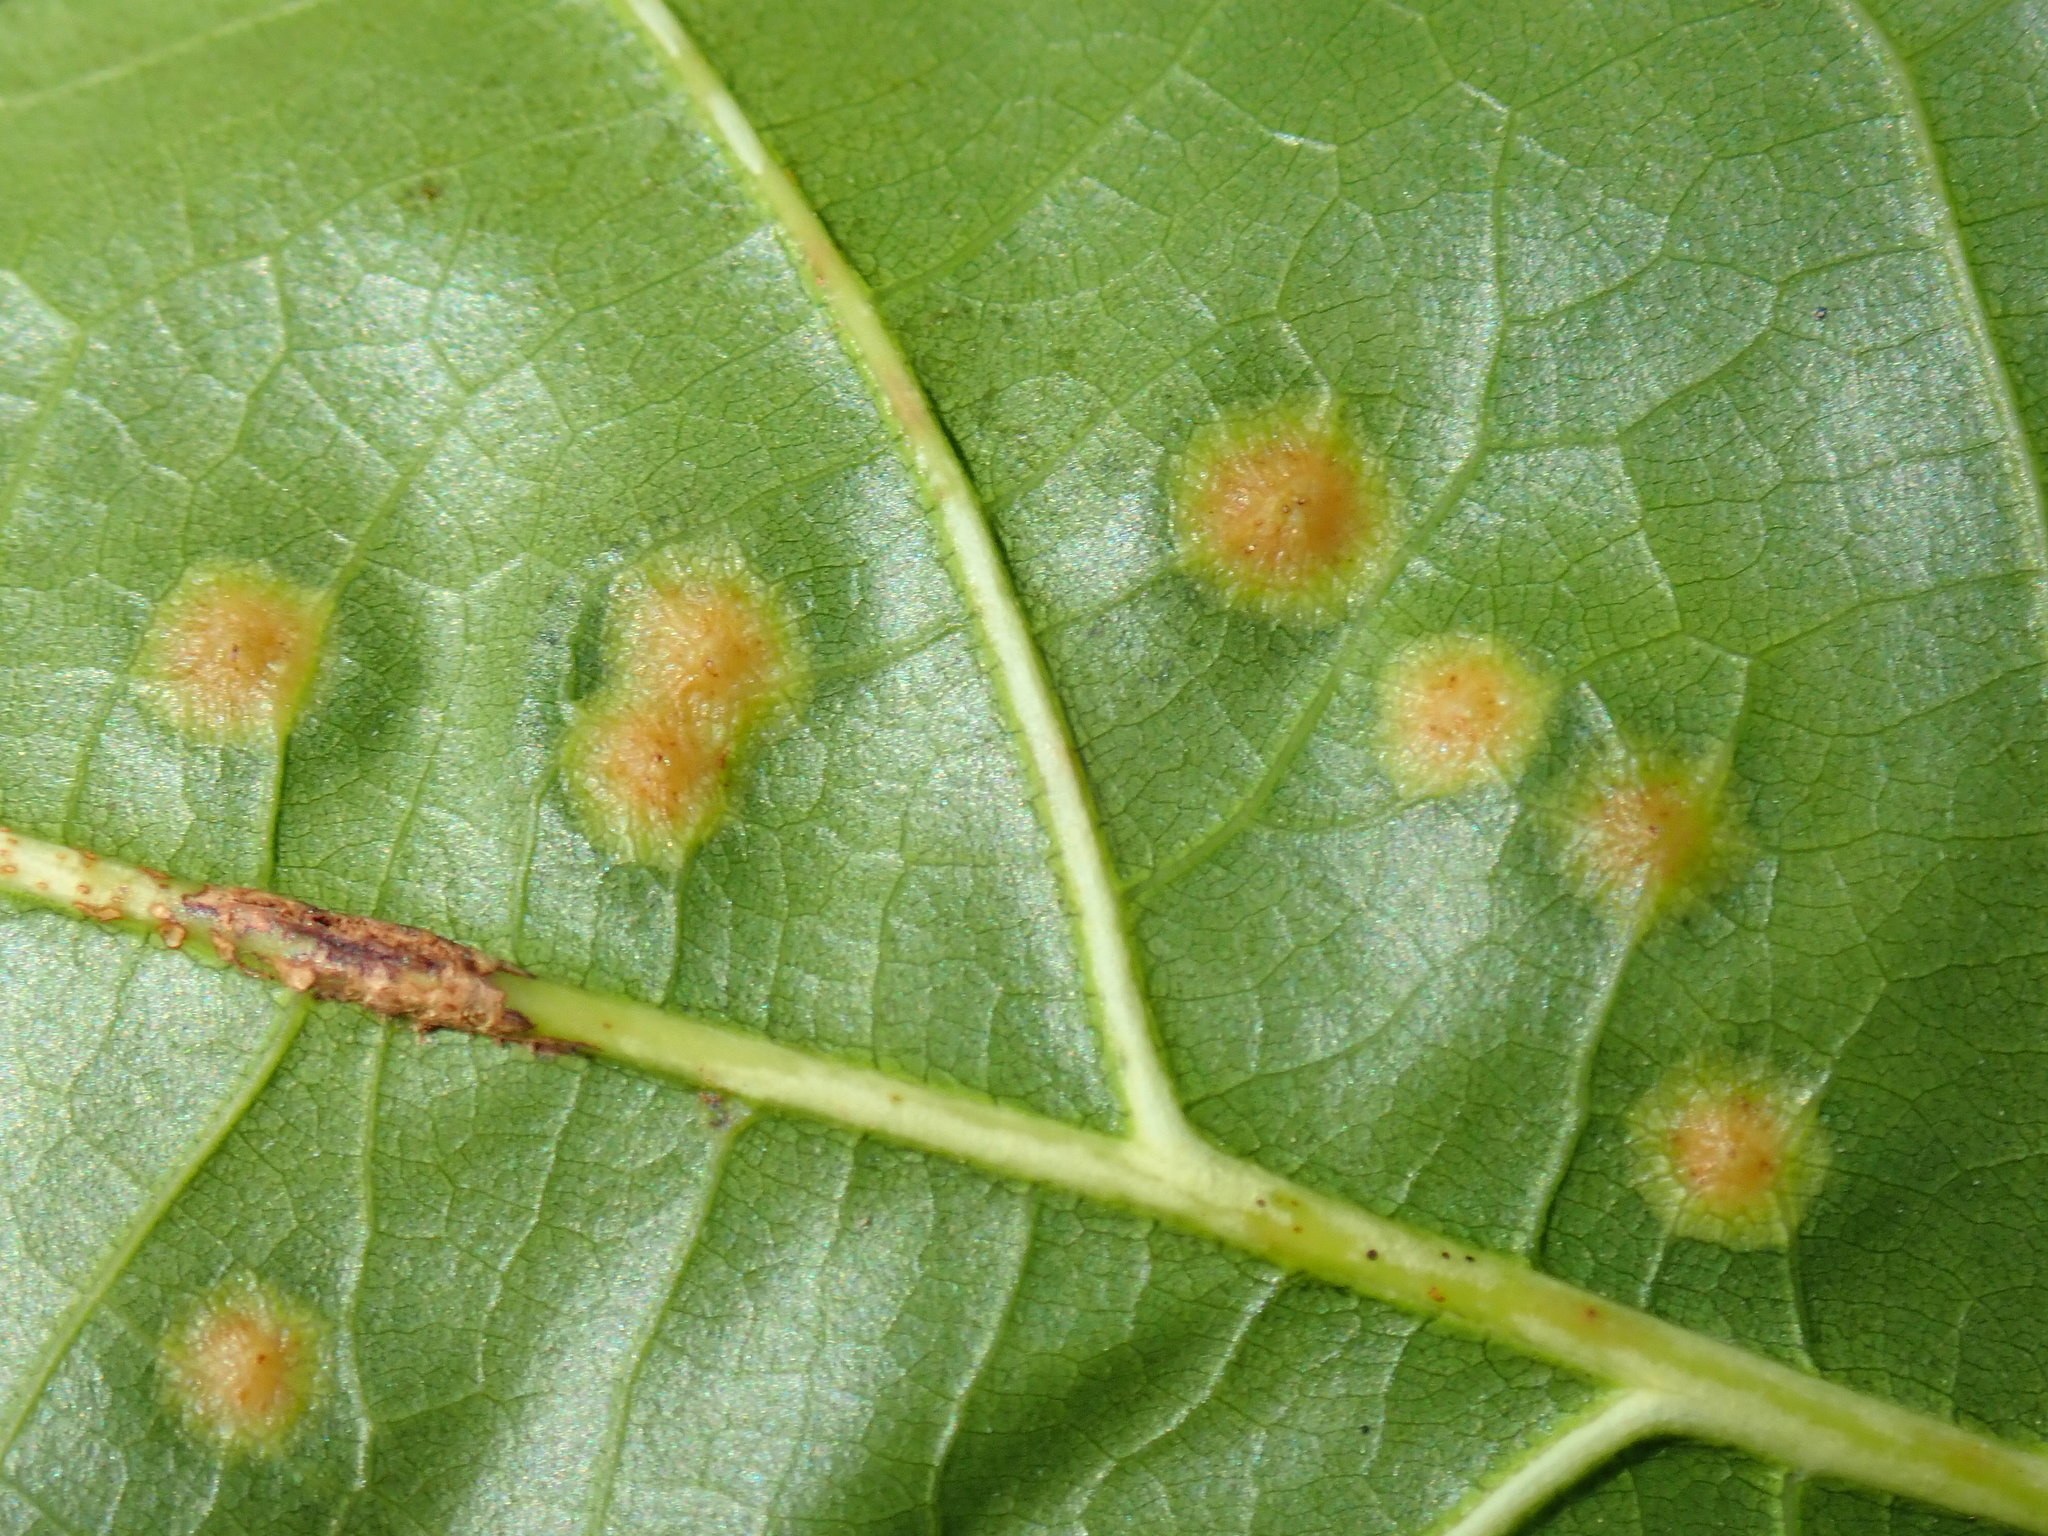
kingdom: Animalia
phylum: Arthropoda
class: Insecta
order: Diptera
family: Cecidomyiidae
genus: Polystepha
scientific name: Polystepha pilulae
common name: Oak leaf gall midge
